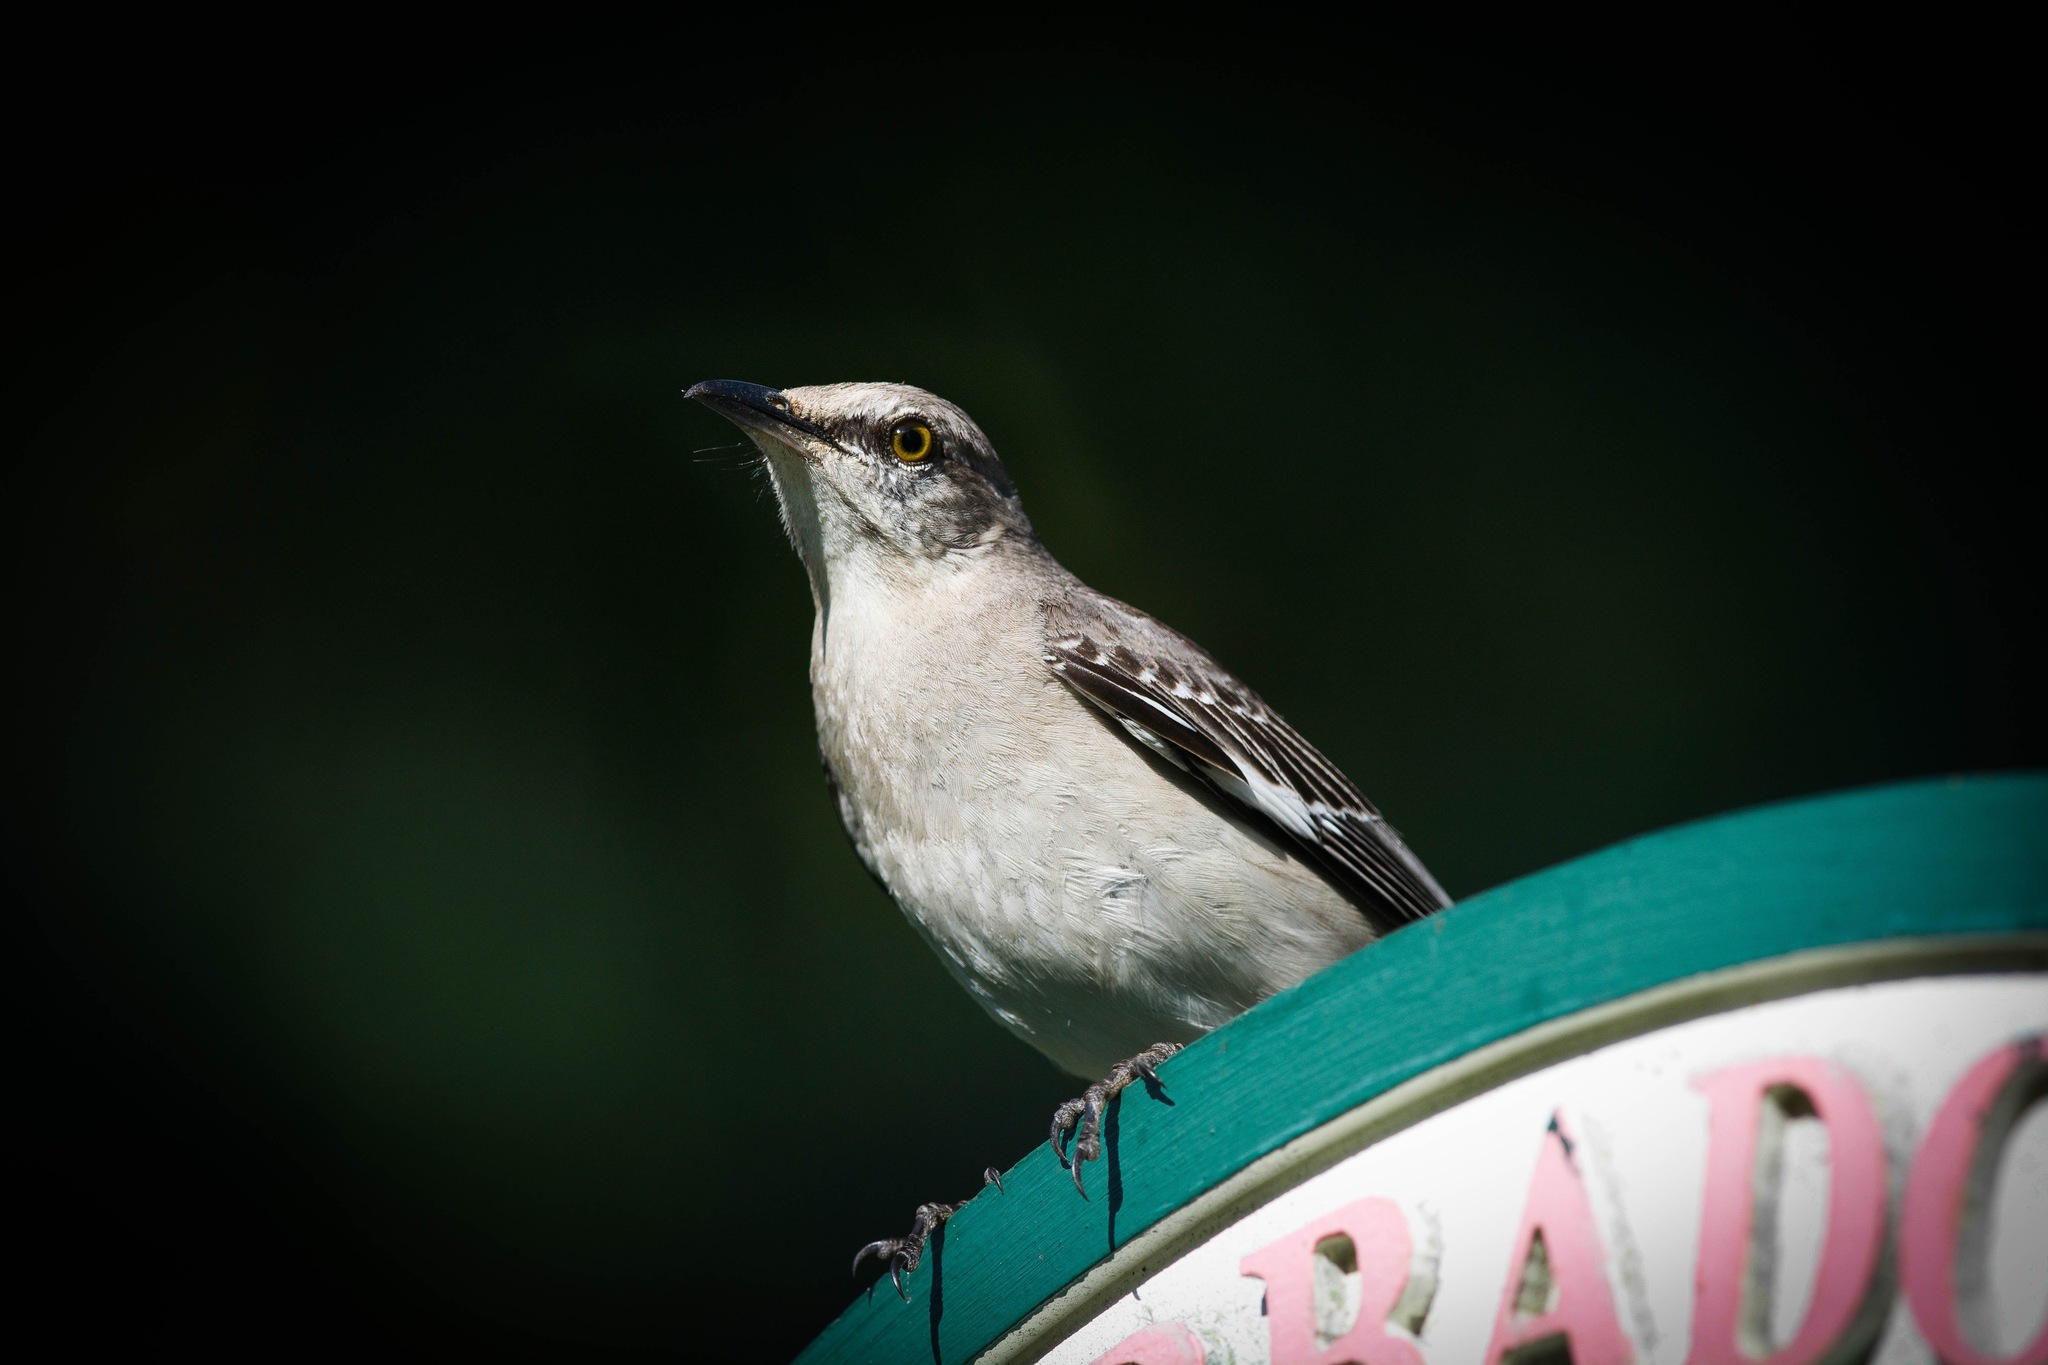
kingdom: Animalia
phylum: Chordata
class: Aves
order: Passeriformes
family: Mimidae
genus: Mimus
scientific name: Mimus polyglottos
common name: Northern mockingbird
